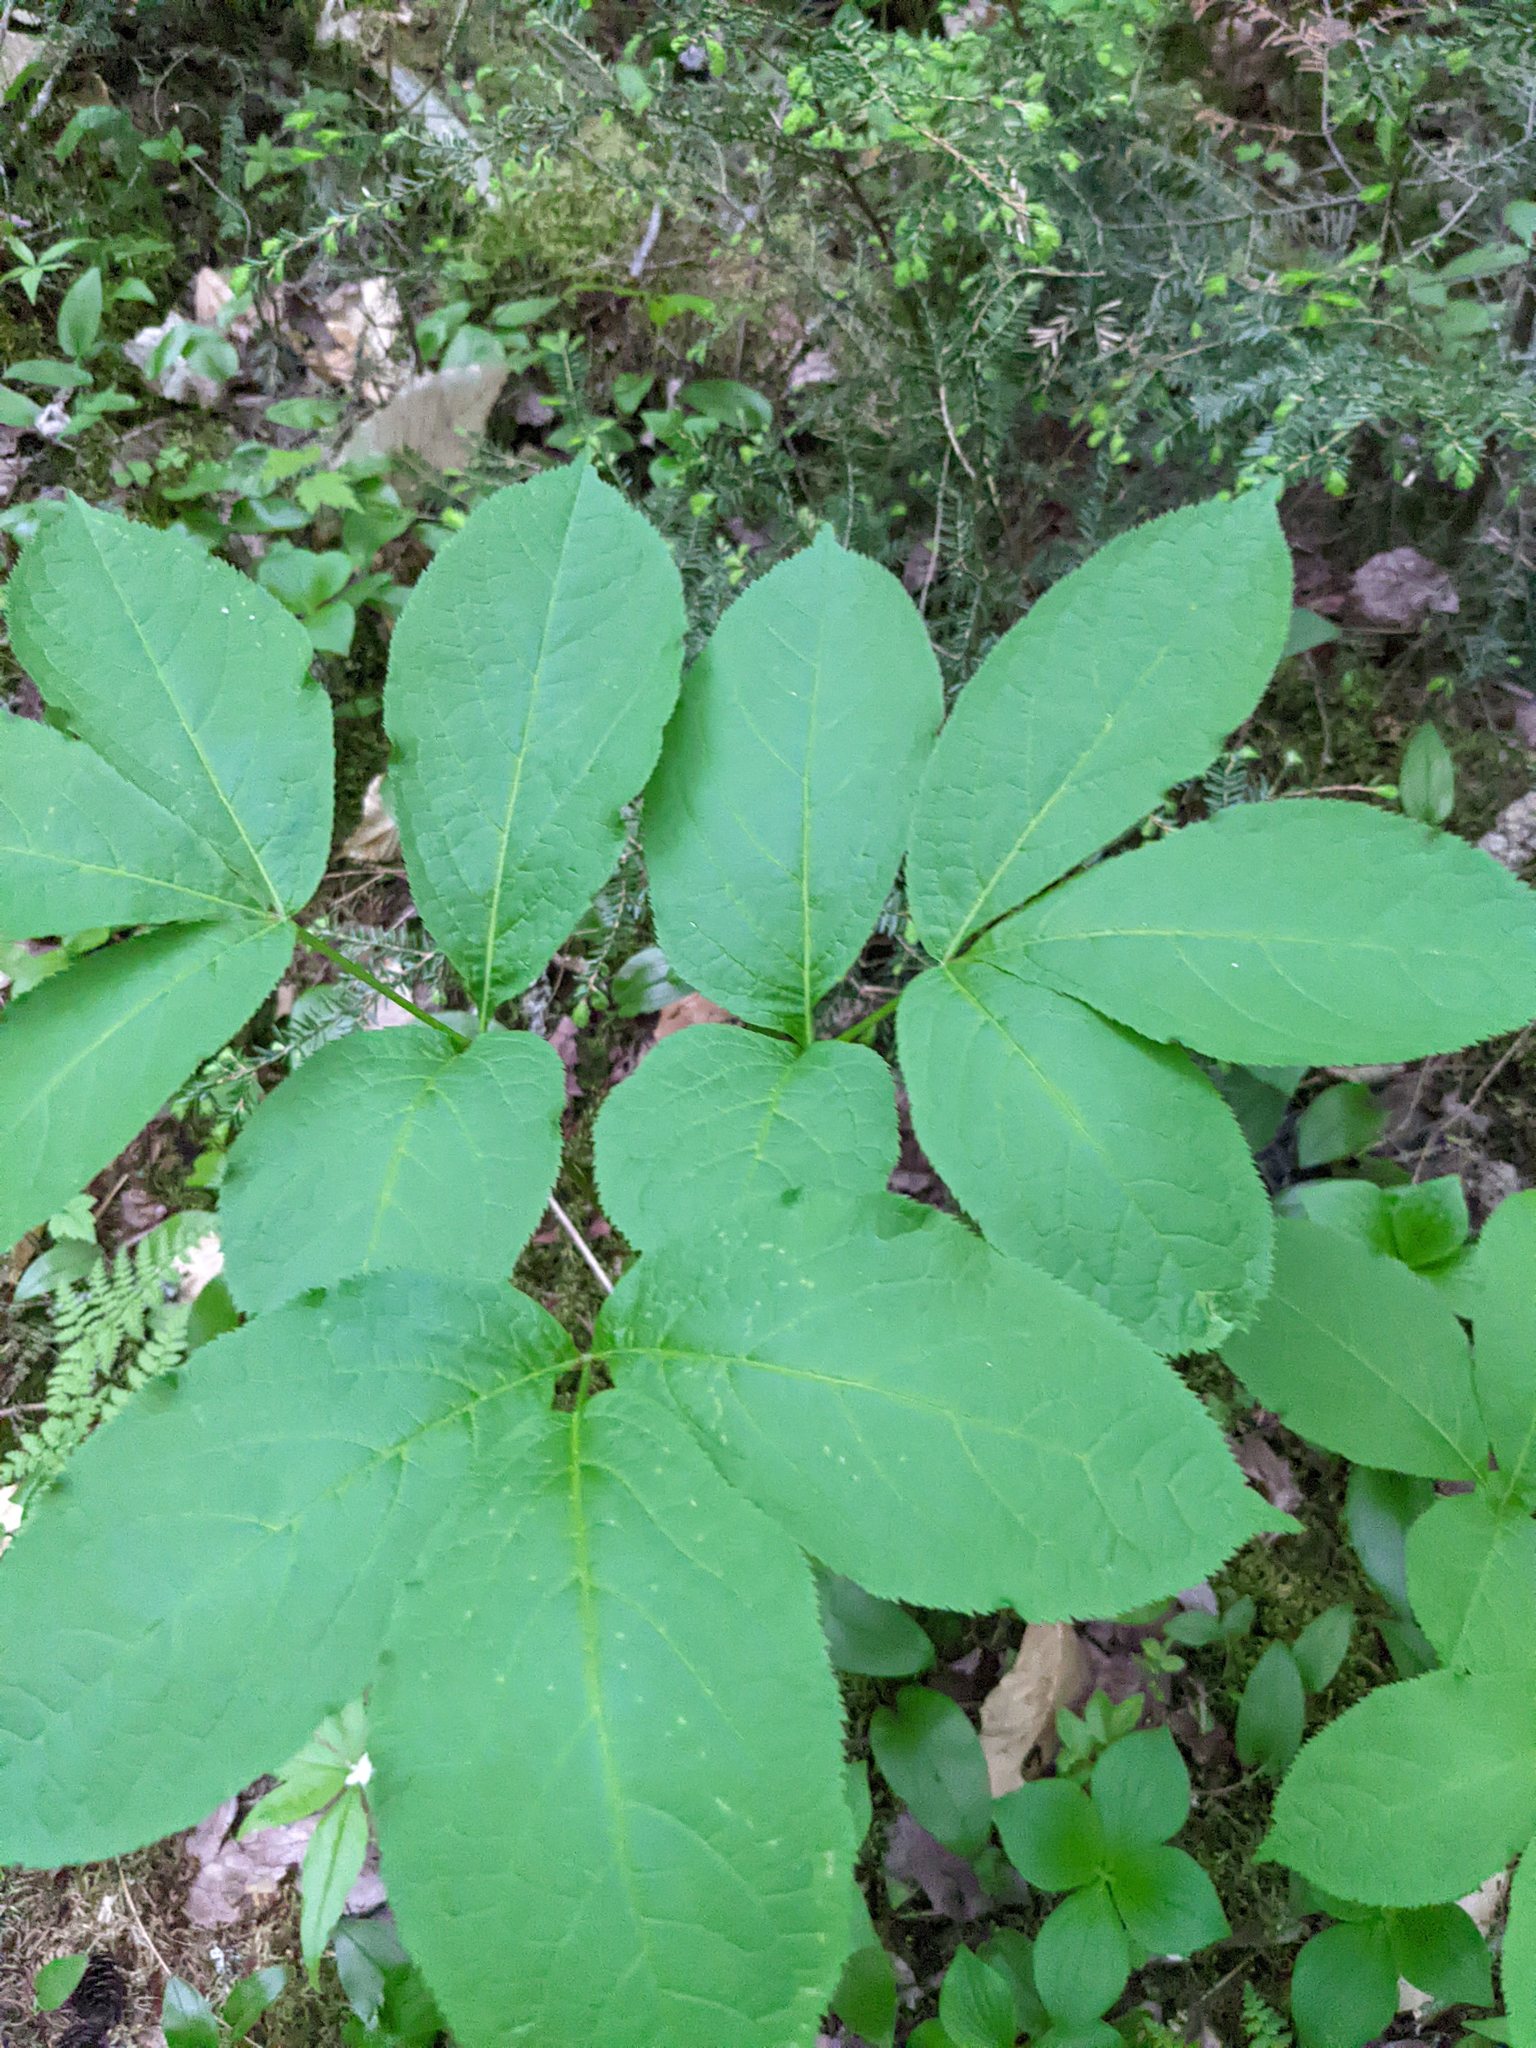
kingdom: Plantae
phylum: Tracheophyta
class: Magnoliopsida
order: Apiales
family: Araliaceae
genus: Aralia
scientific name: Aralia nudicaulis
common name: Wild sarsaparilla
